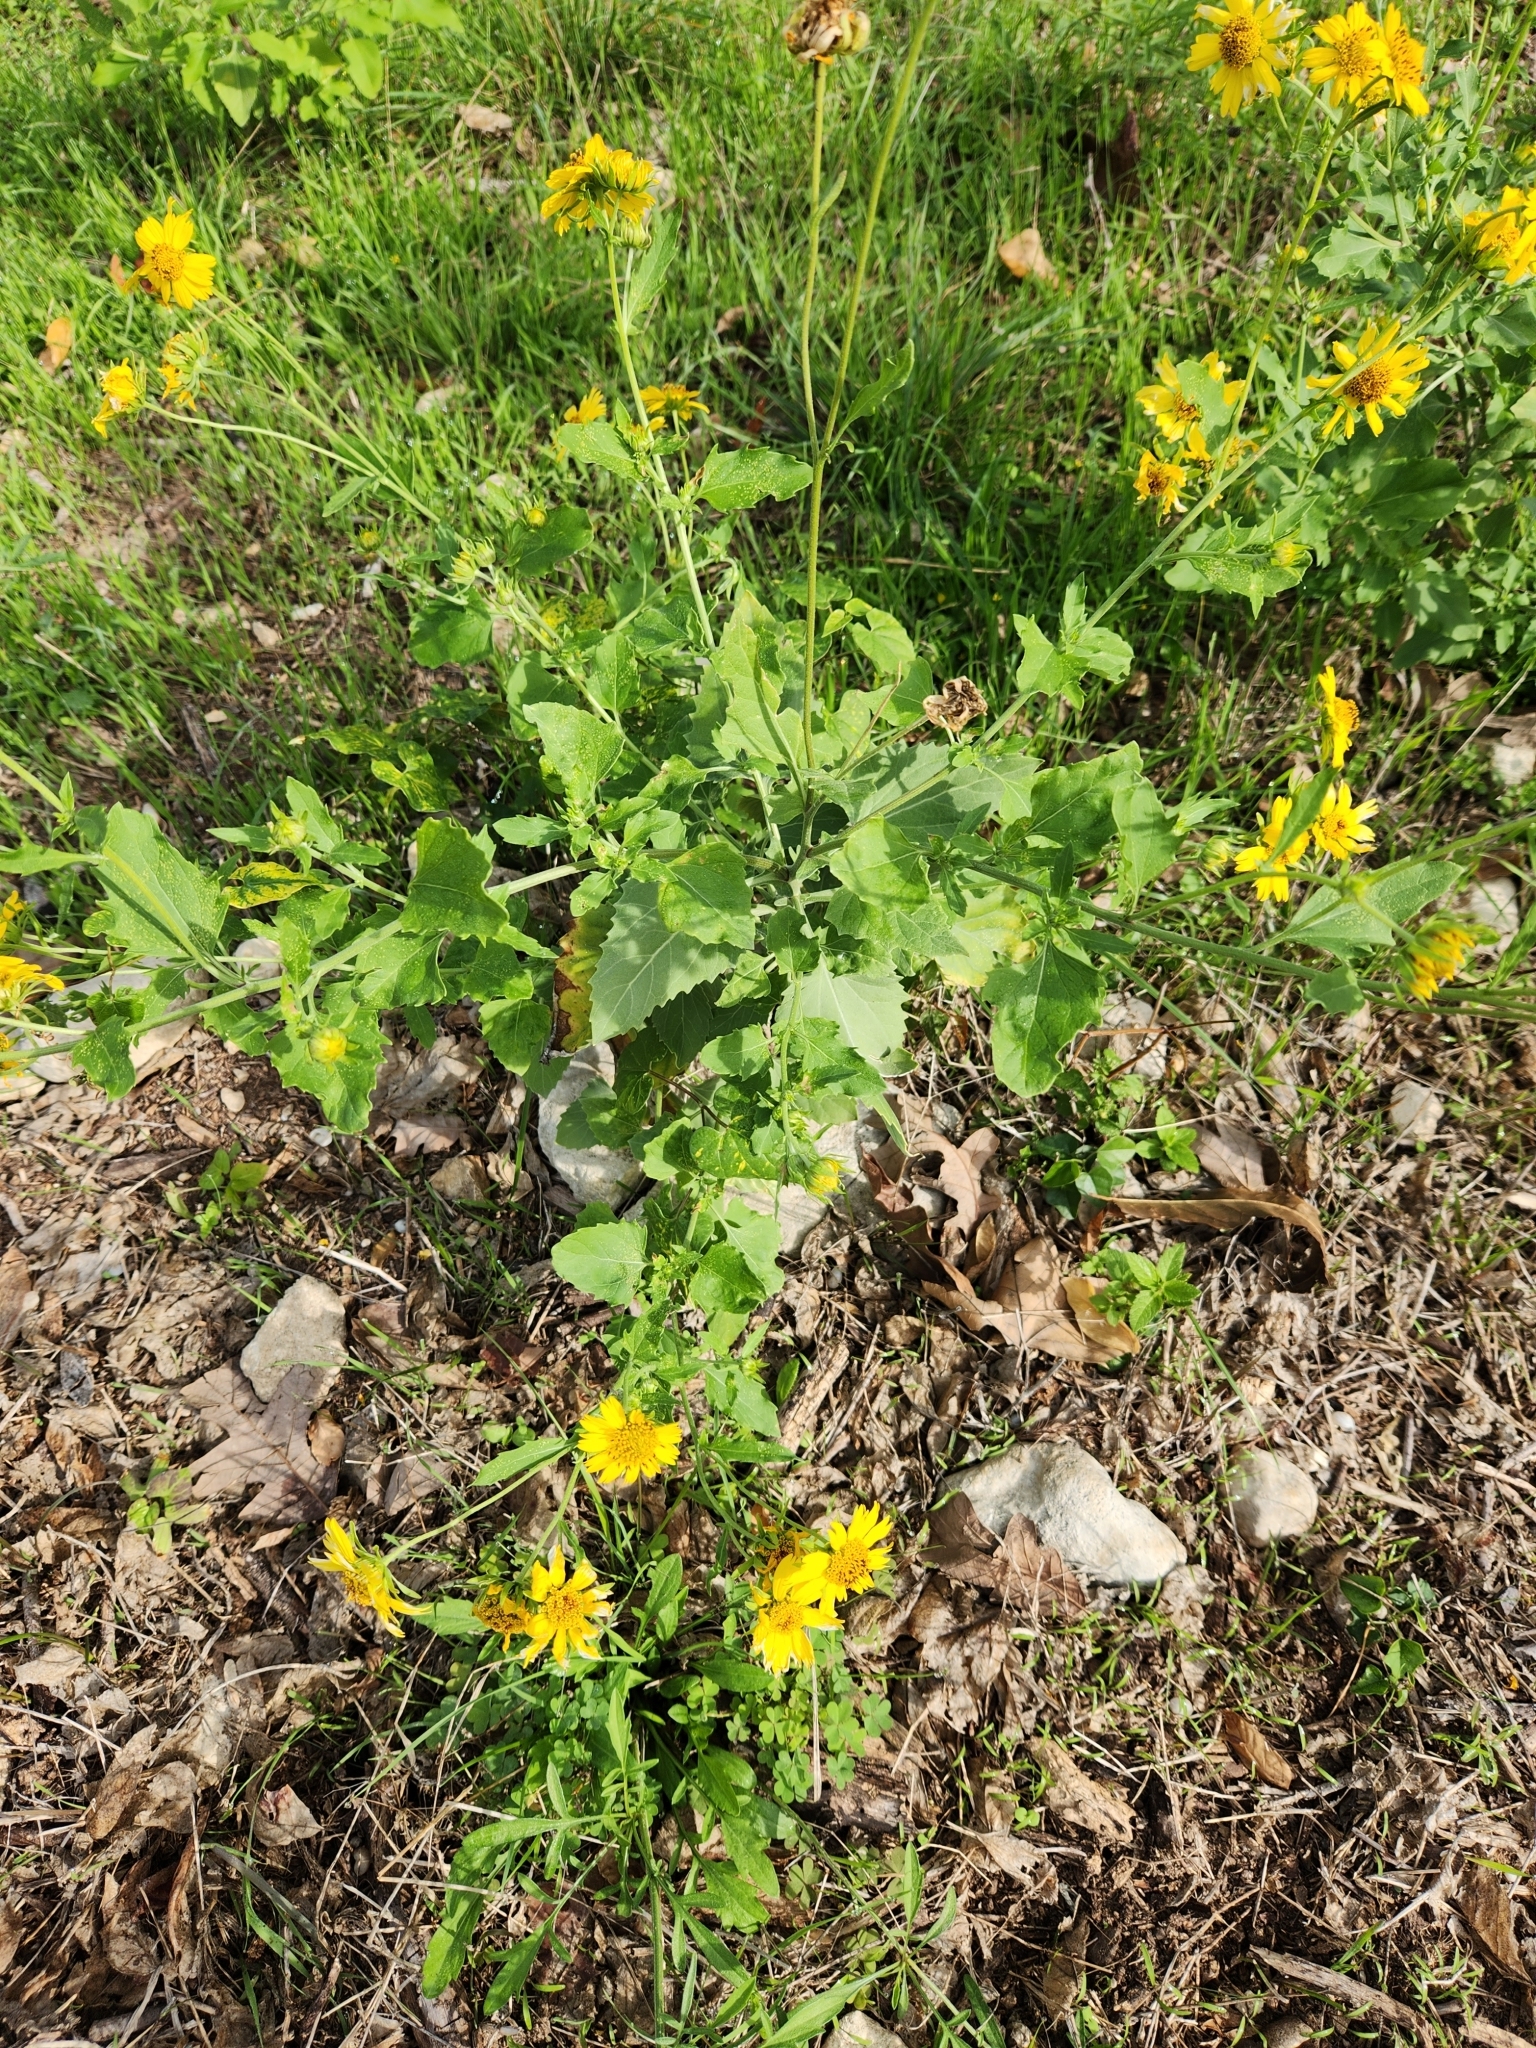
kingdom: Plantae
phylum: Tracheophyta
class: Magnoliopsida
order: Asterales
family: Asteraceae
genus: Verbesina
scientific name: Verbesina encelioides
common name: Golden crownbeard
